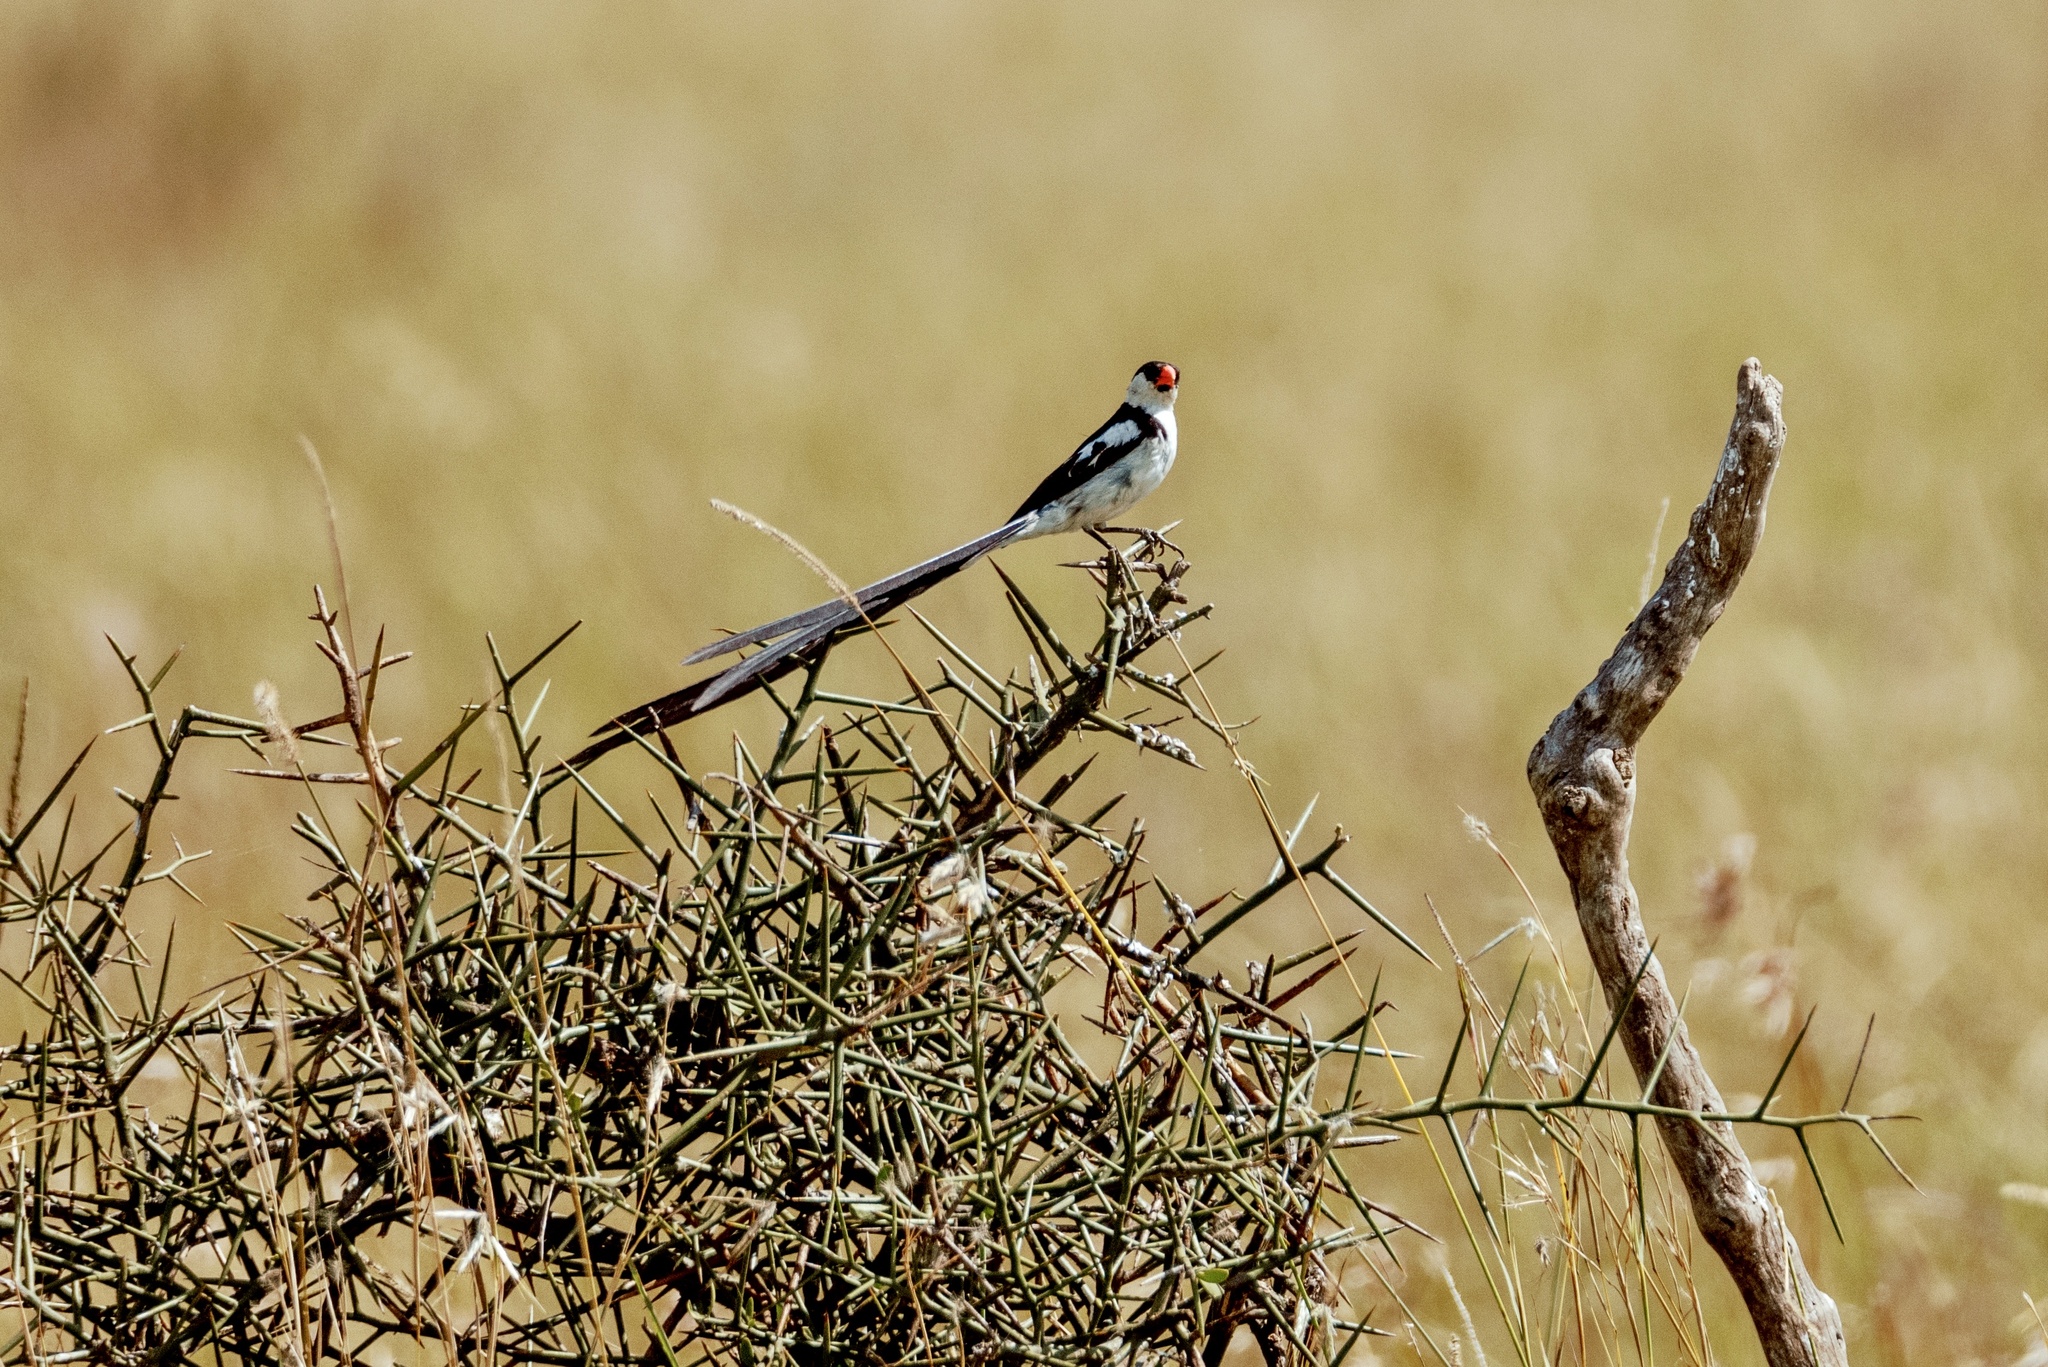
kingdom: Animalia
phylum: Chordata
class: Aves
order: Passeriformes
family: Viduidae
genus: Vidua
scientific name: Vidua macroura
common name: Pin-tailed whydah
